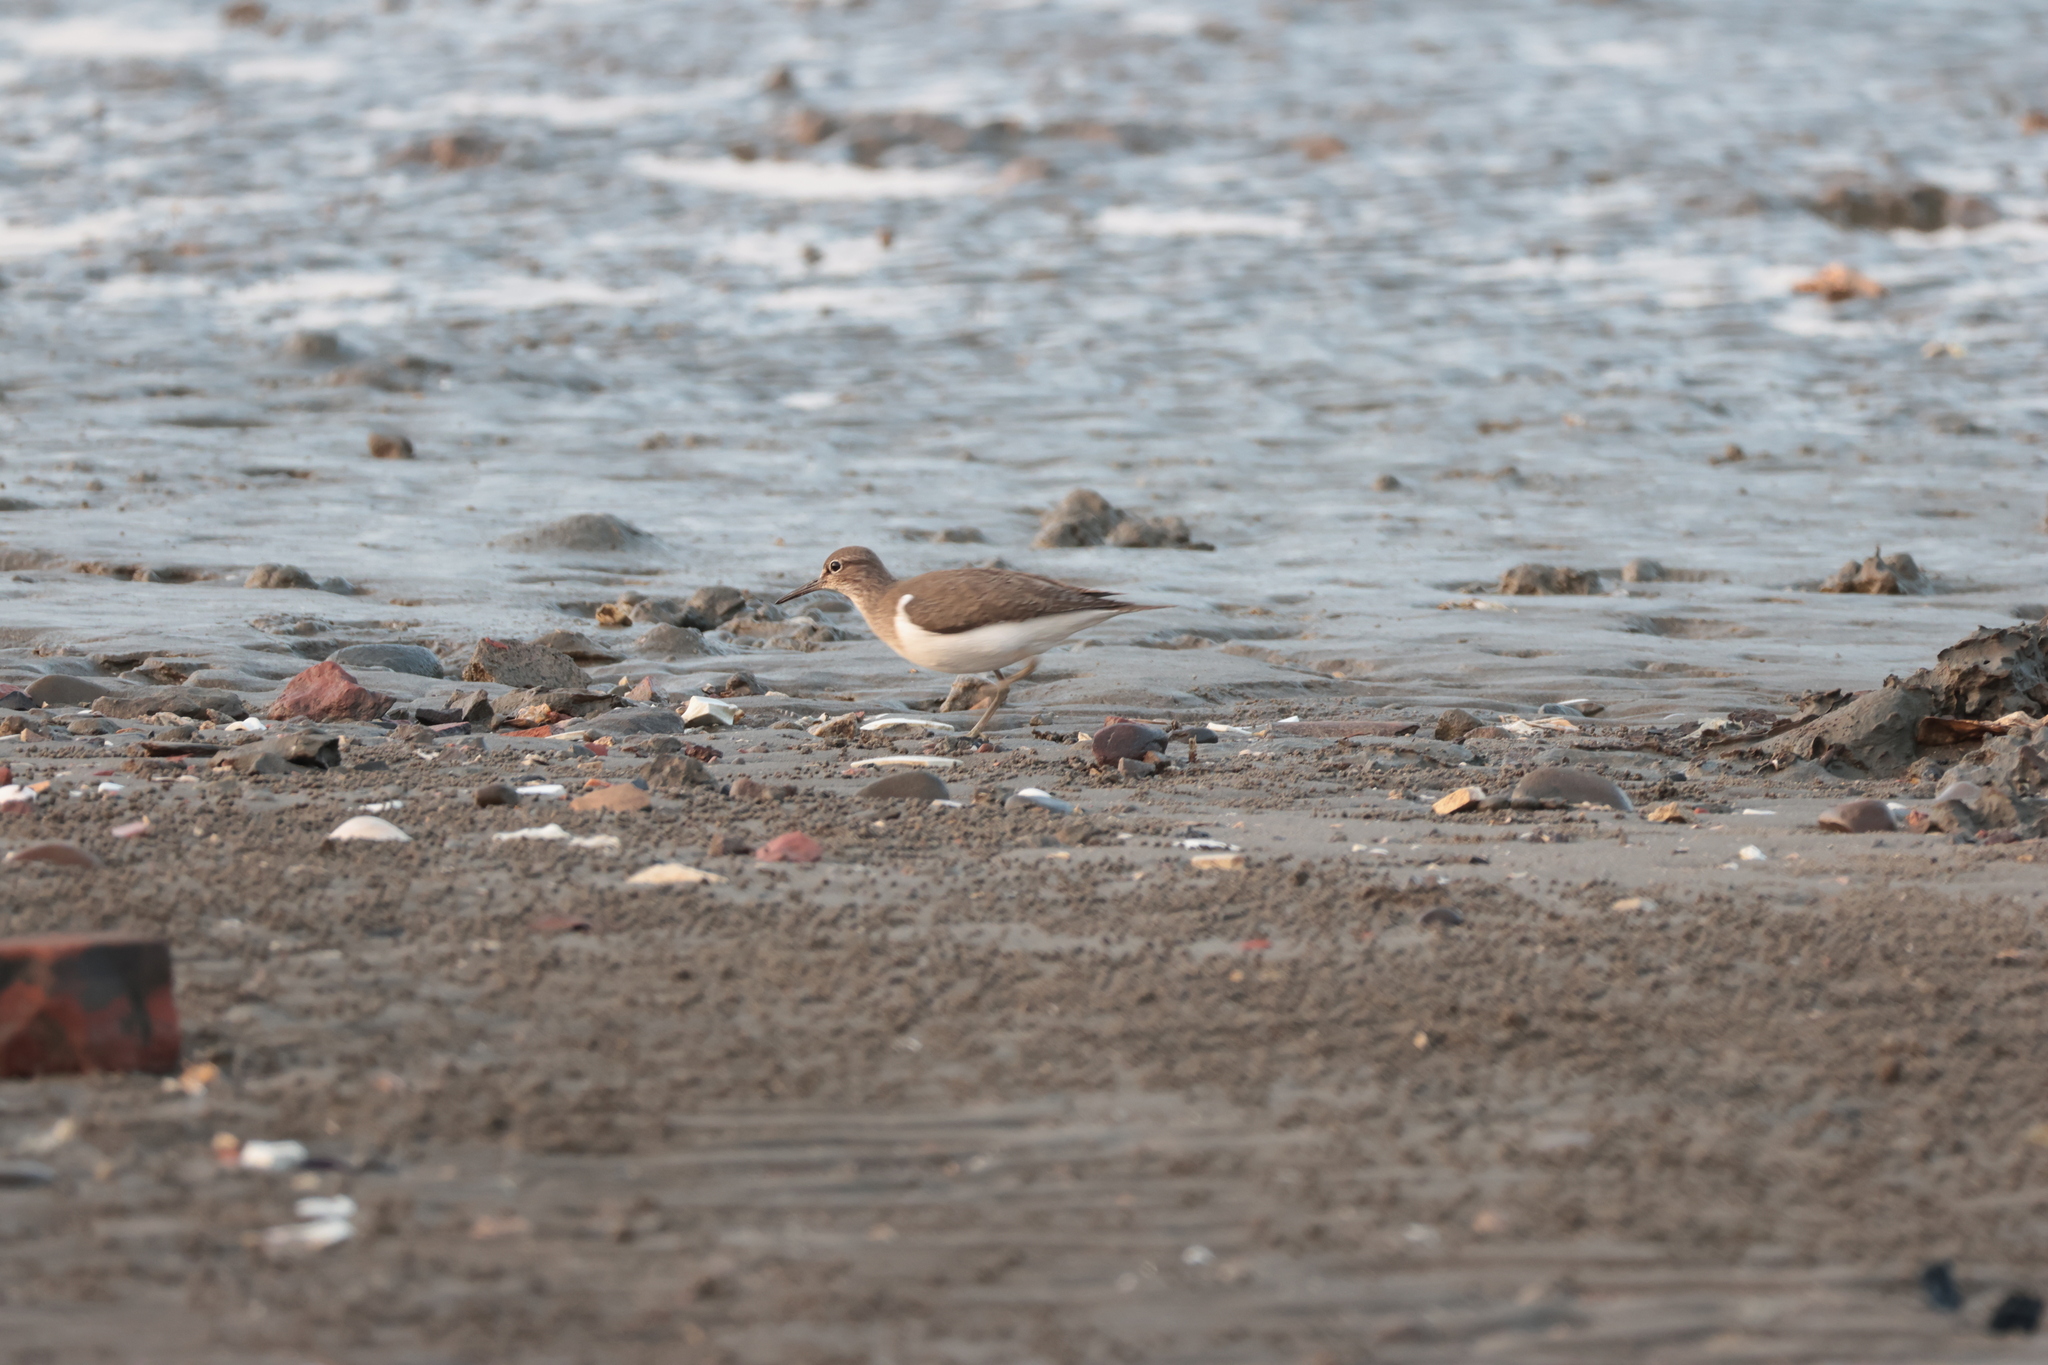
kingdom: Animalia
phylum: Chordata
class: Aves
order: Charadriiformes
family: Scolopacidae
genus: Actitis
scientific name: Actitis hypoleucos
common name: Common sandpiper
